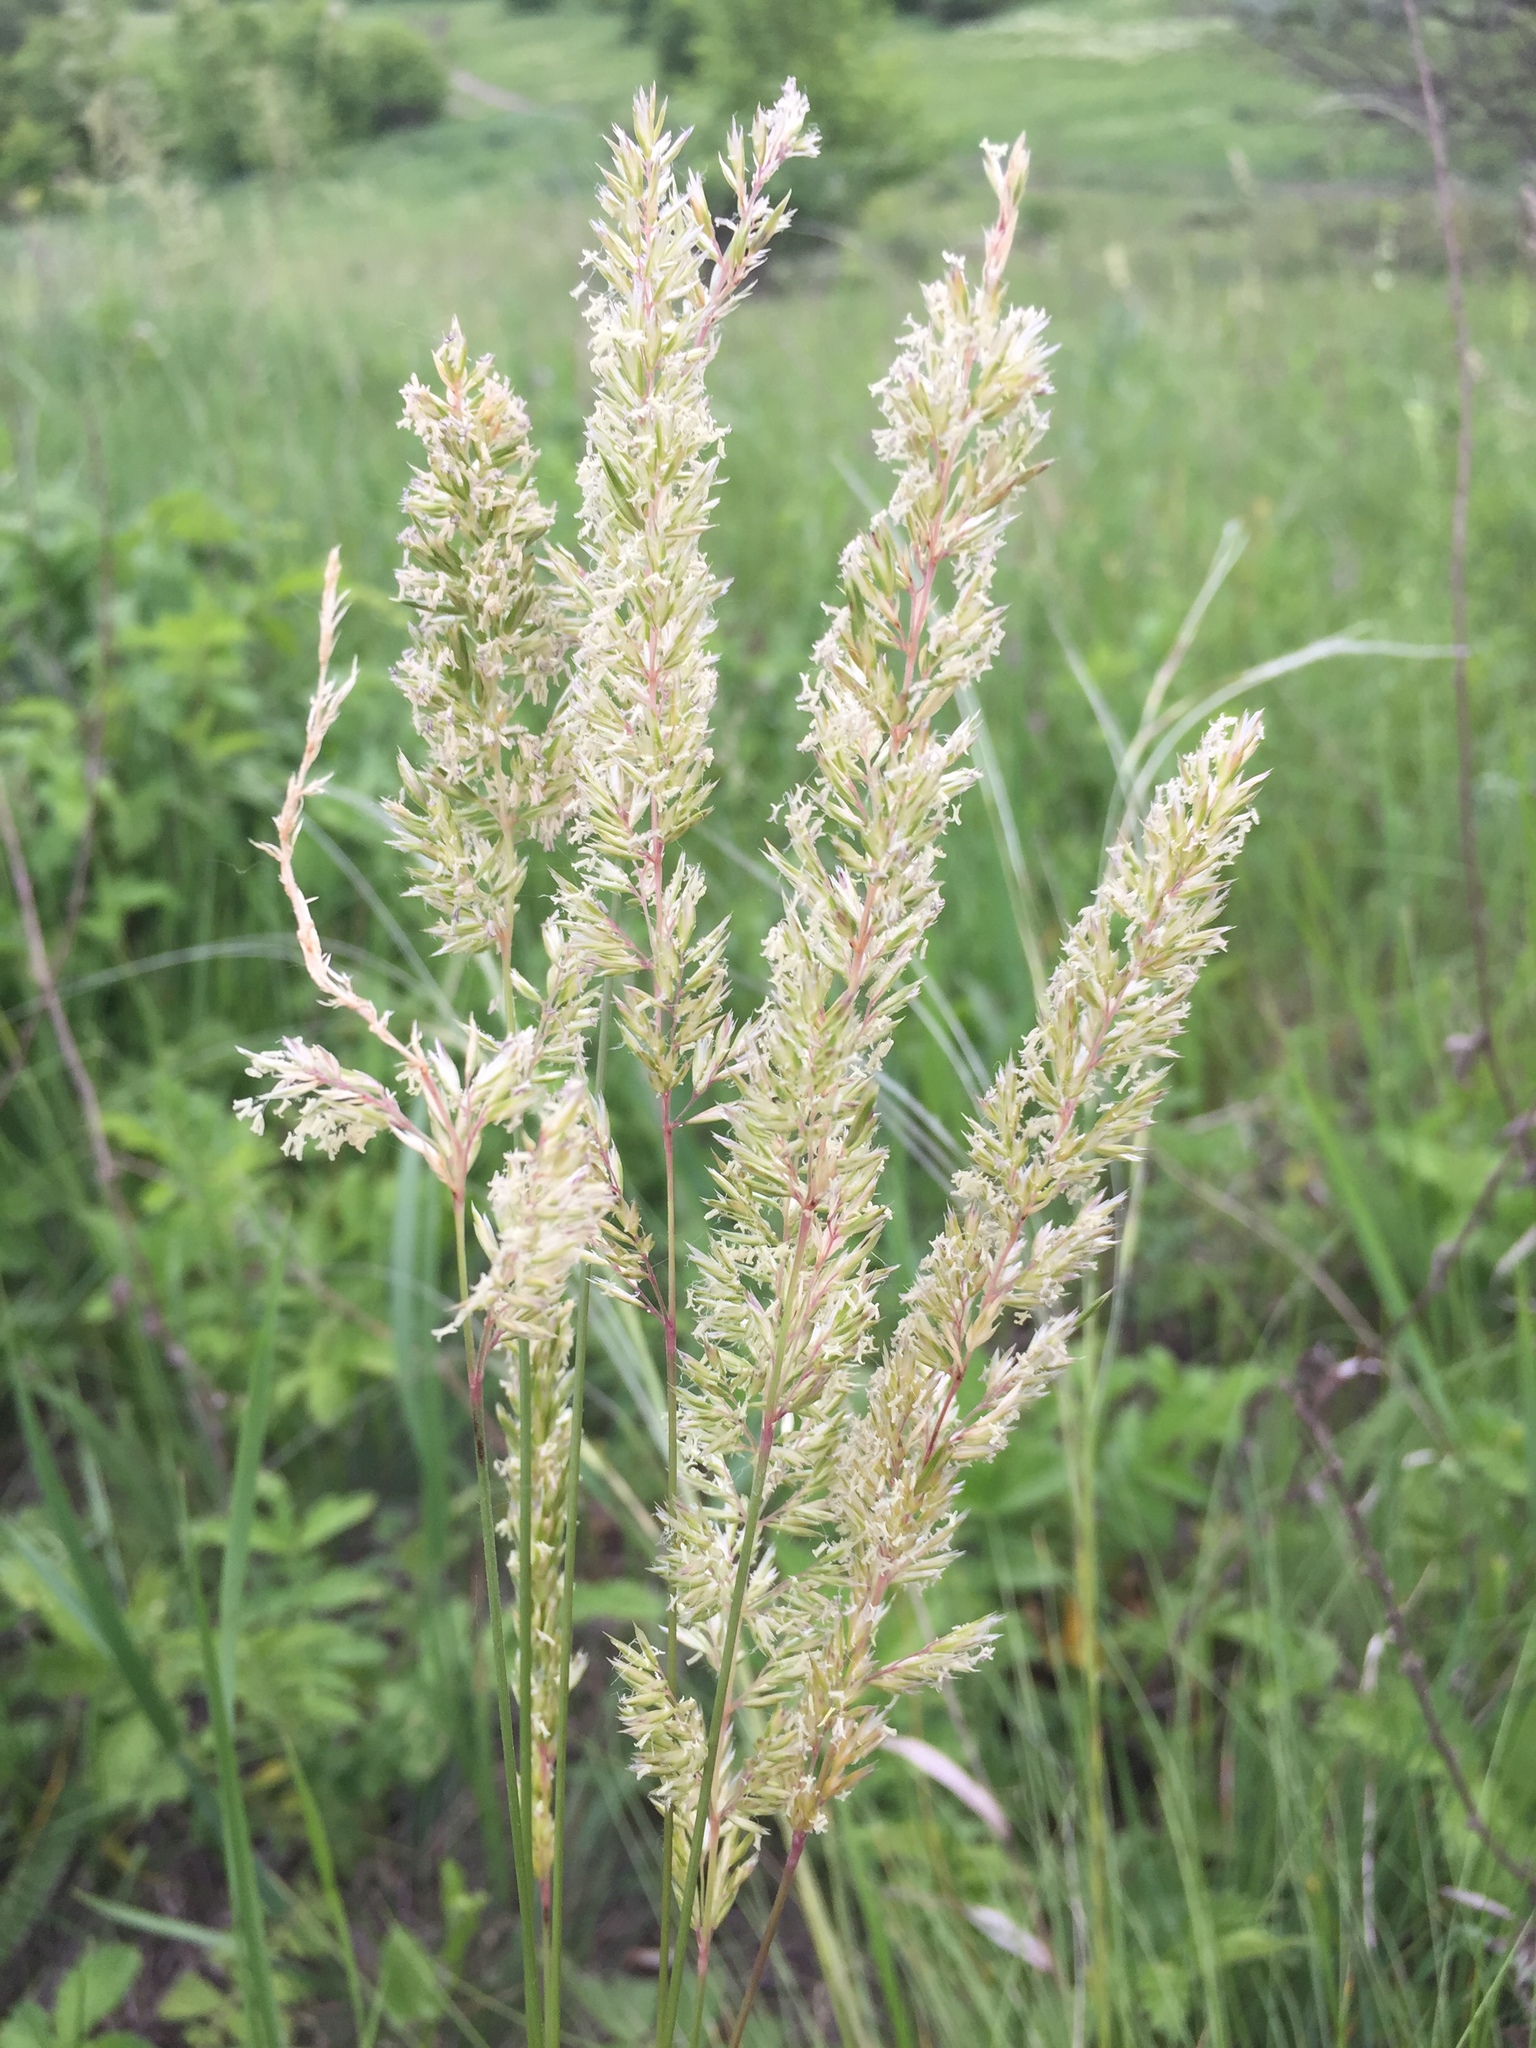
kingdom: Plantae
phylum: Tracheophyta
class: Liliopsida
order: Poales
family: Poaceae
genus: Koeleria
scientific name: Koeleria macrantha
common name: Crested hair-grass
